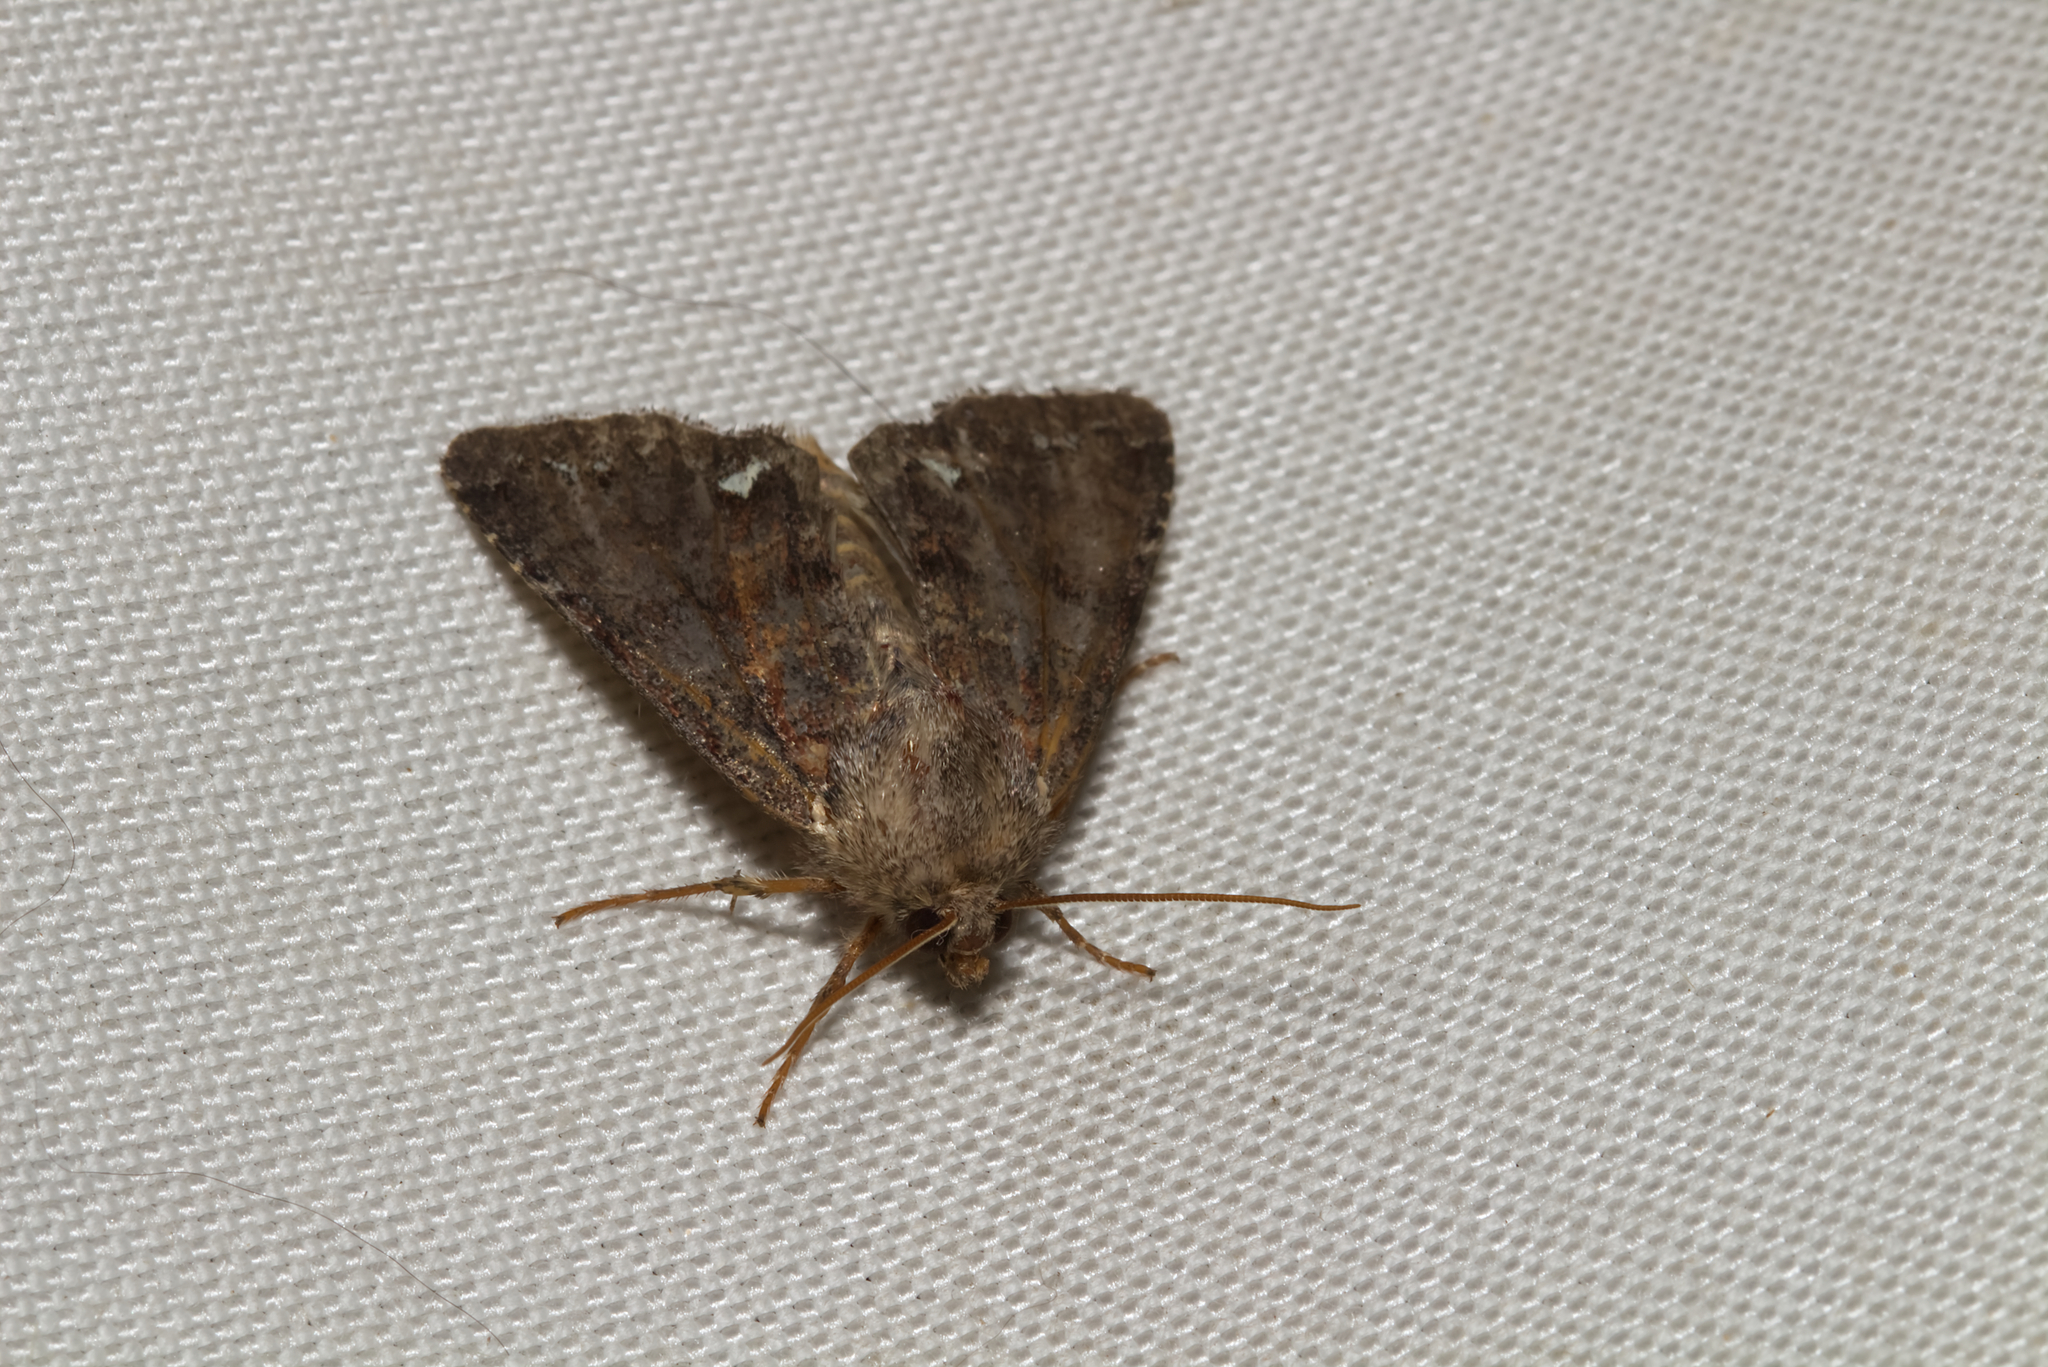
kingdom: Animalia
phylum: Arthropoda
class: Insecta
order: Lepidoptera
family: Noctuidae
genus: Ceramica
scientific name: Ceramica pisi
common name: Broom moth
